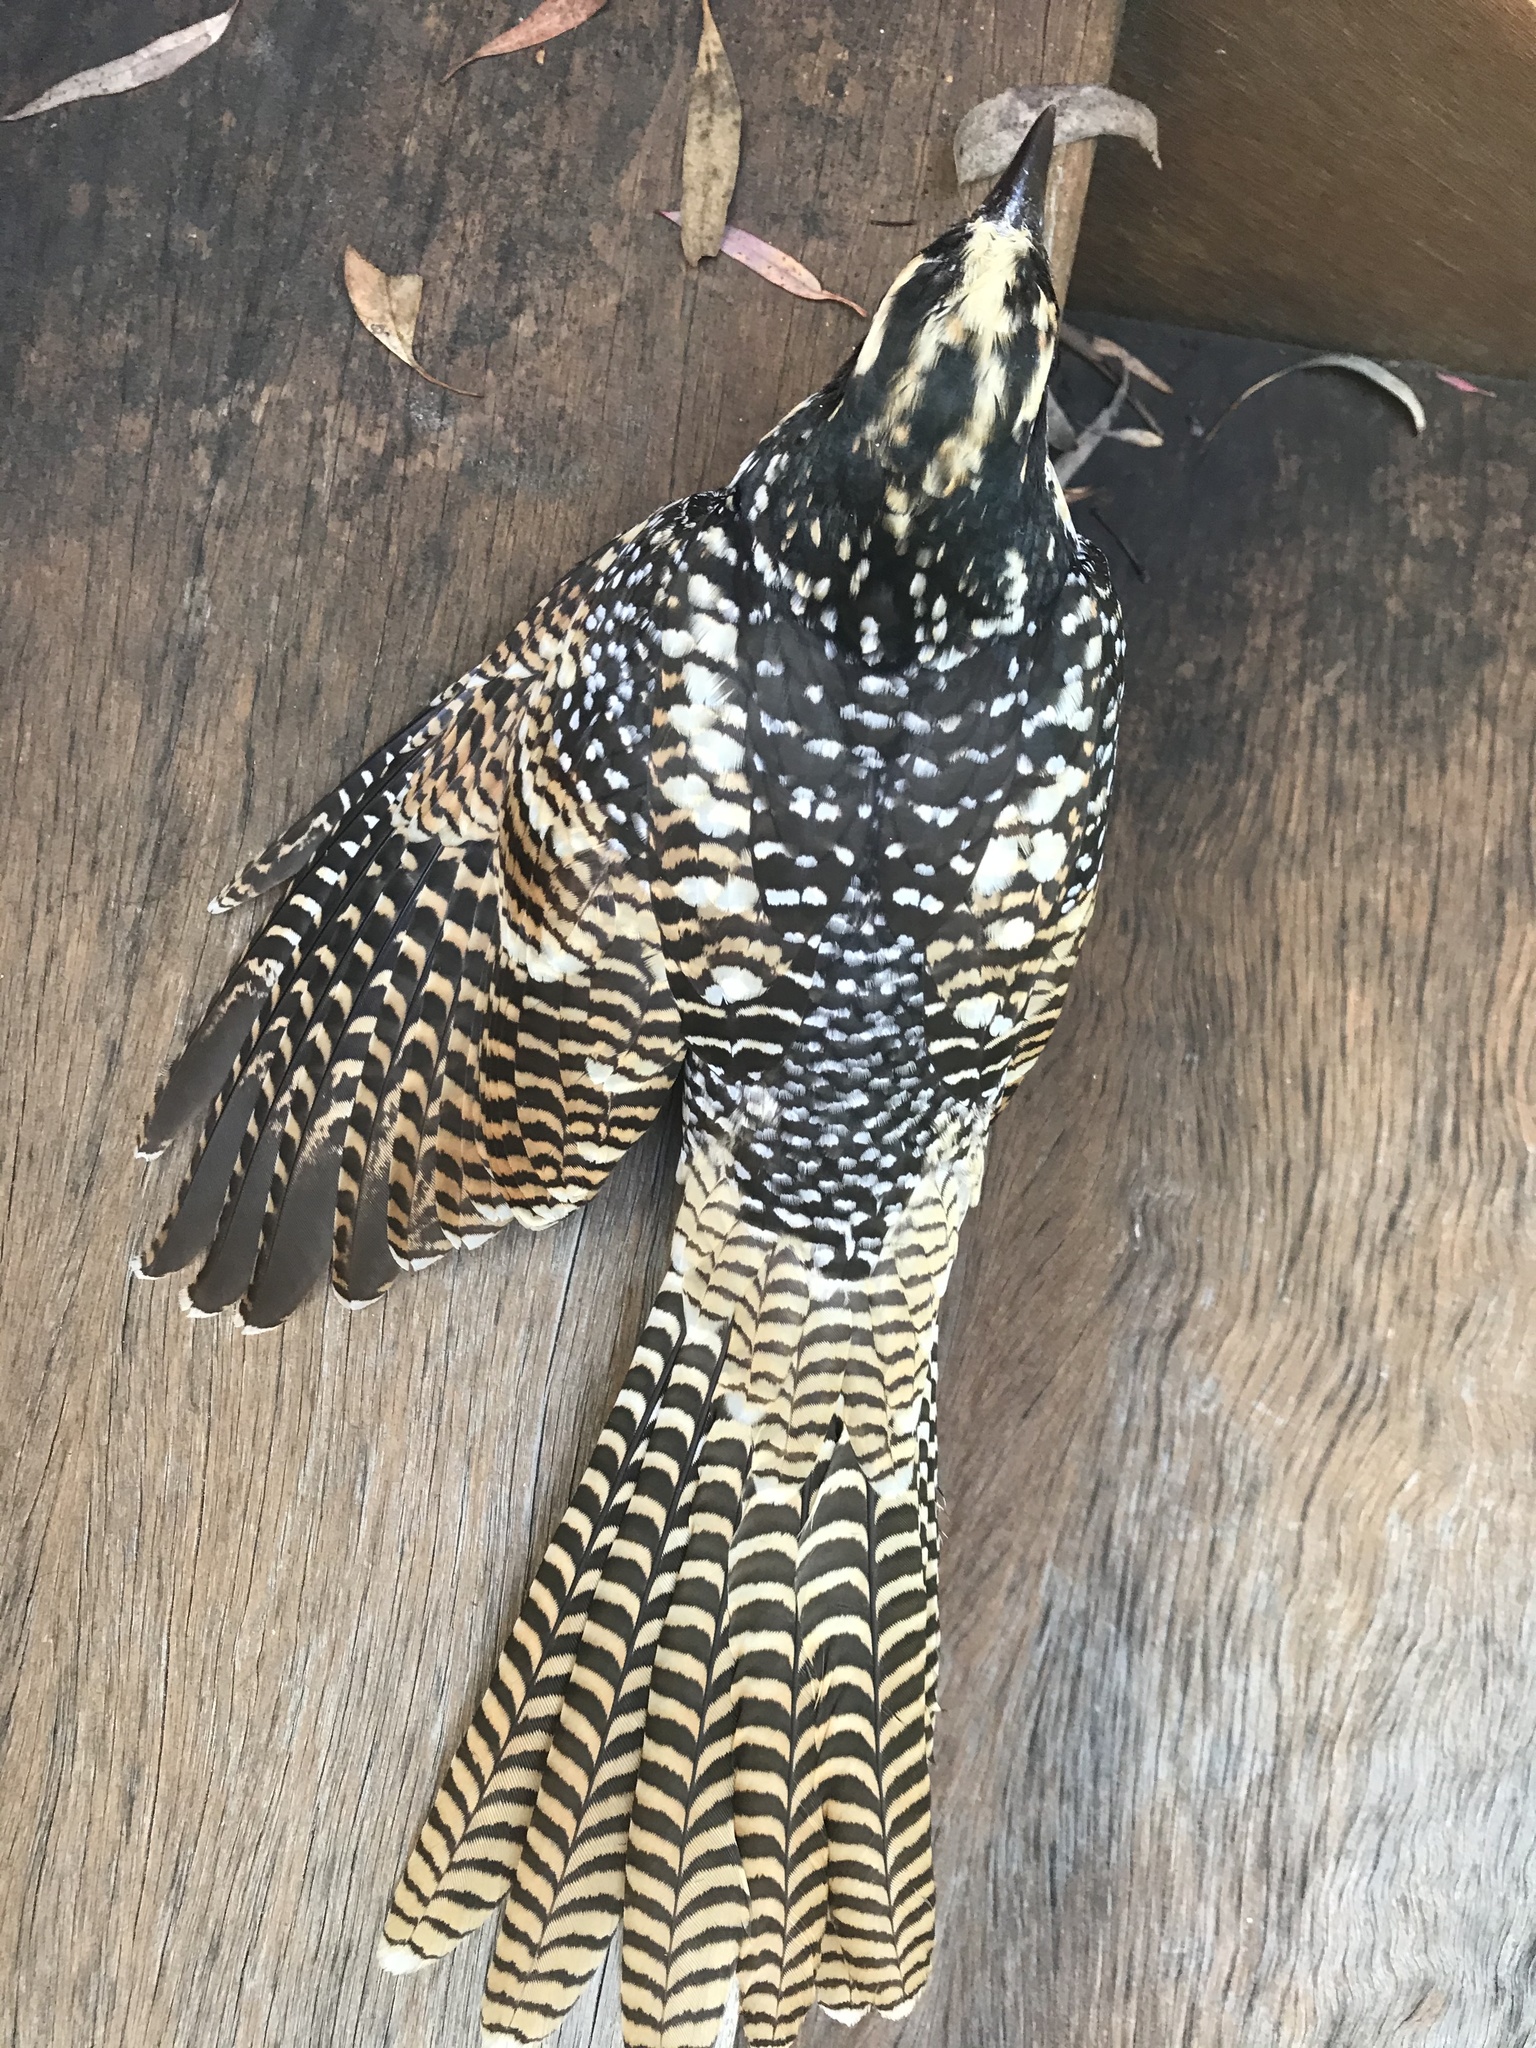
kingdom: Animalia
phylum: Chordata
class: Aves
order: Cuculiformes
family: Cuculidae
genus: Eudynamys
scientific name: Eudynamys orientalis
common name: Pacific koel
